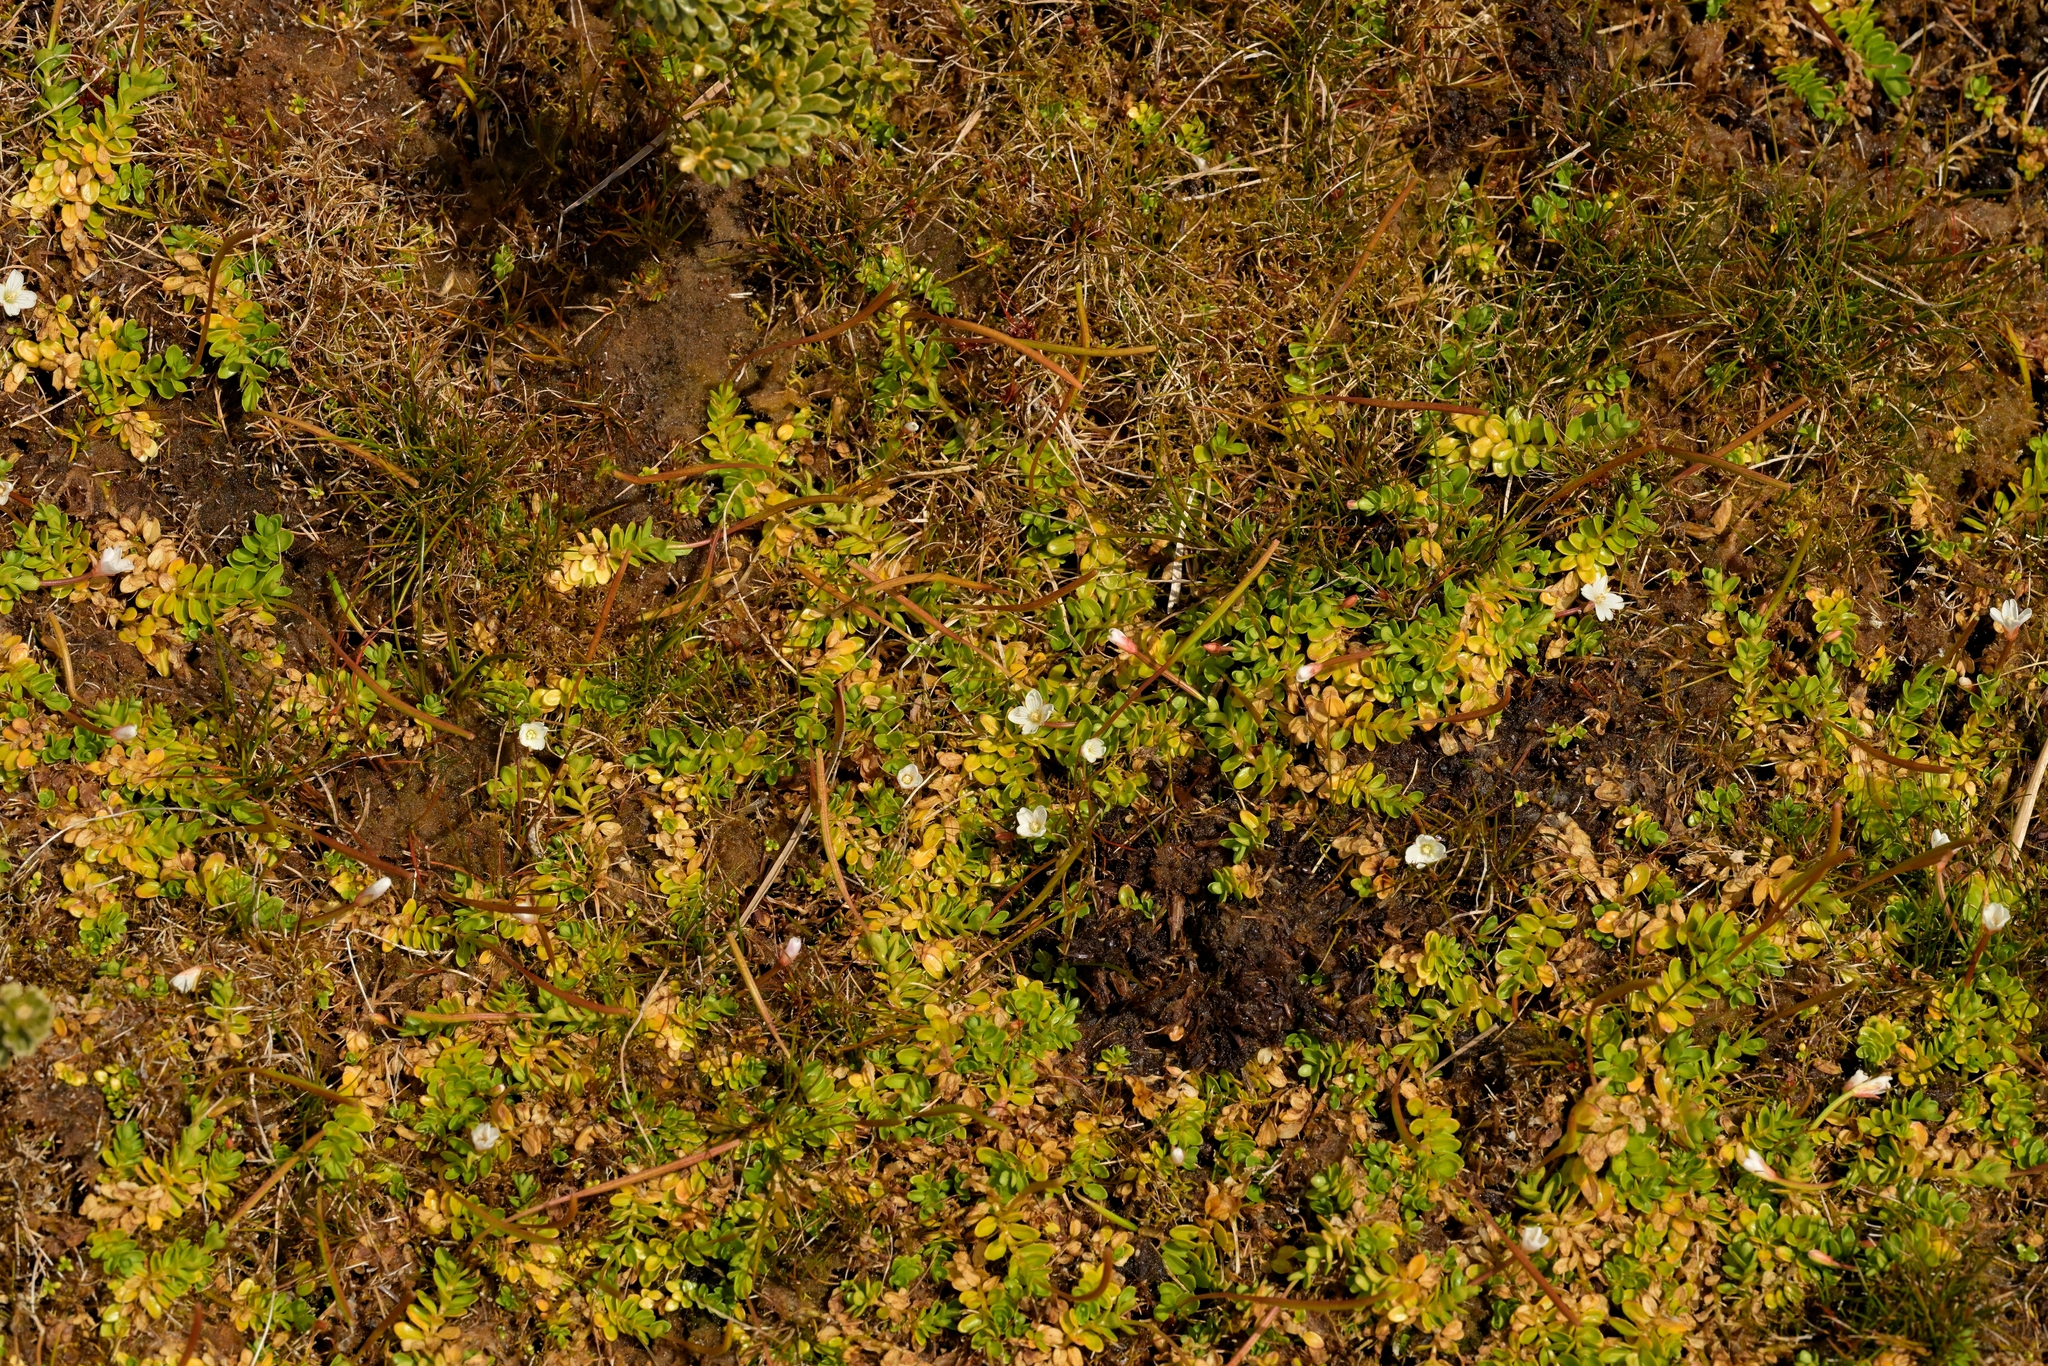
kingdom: Plantae
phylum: Tracheophyta
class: Magnoliopsida
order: Myrtales
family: Onagraceae
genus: Epilobium
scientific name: Epilobium confertifolium
